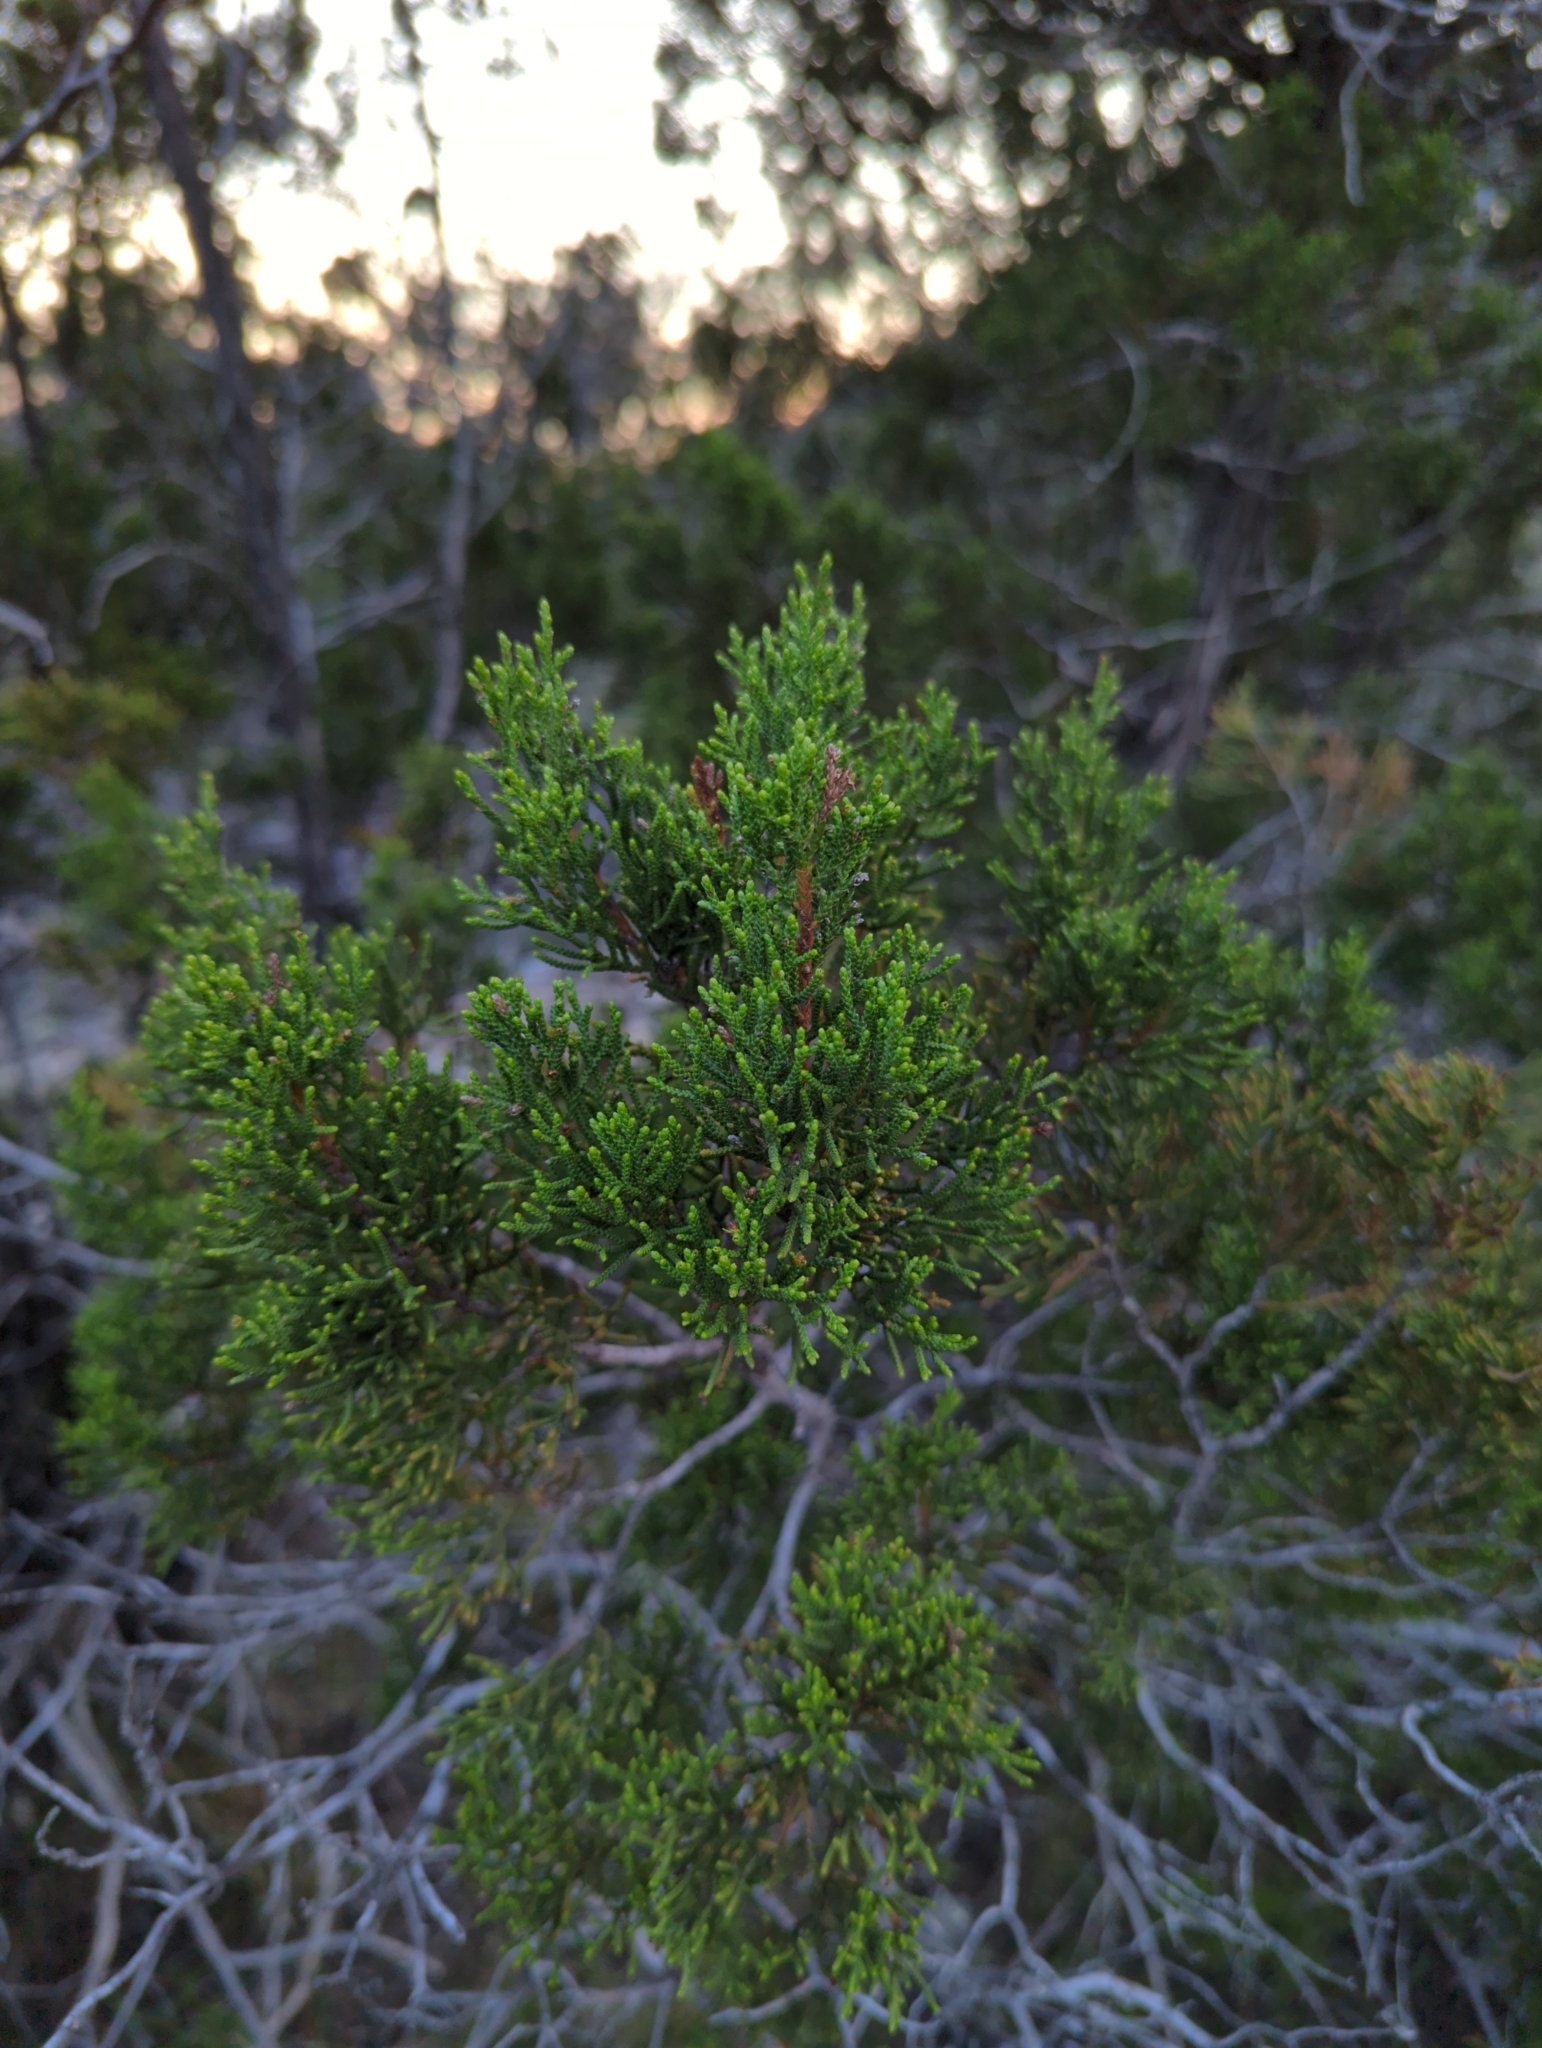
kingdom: Plantae
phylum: Tracheophyta
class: Pinopsida
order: Pinales
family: Cupressaceae
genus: Juniperus
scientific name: Juniperus ashei
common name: Mexican juniper
